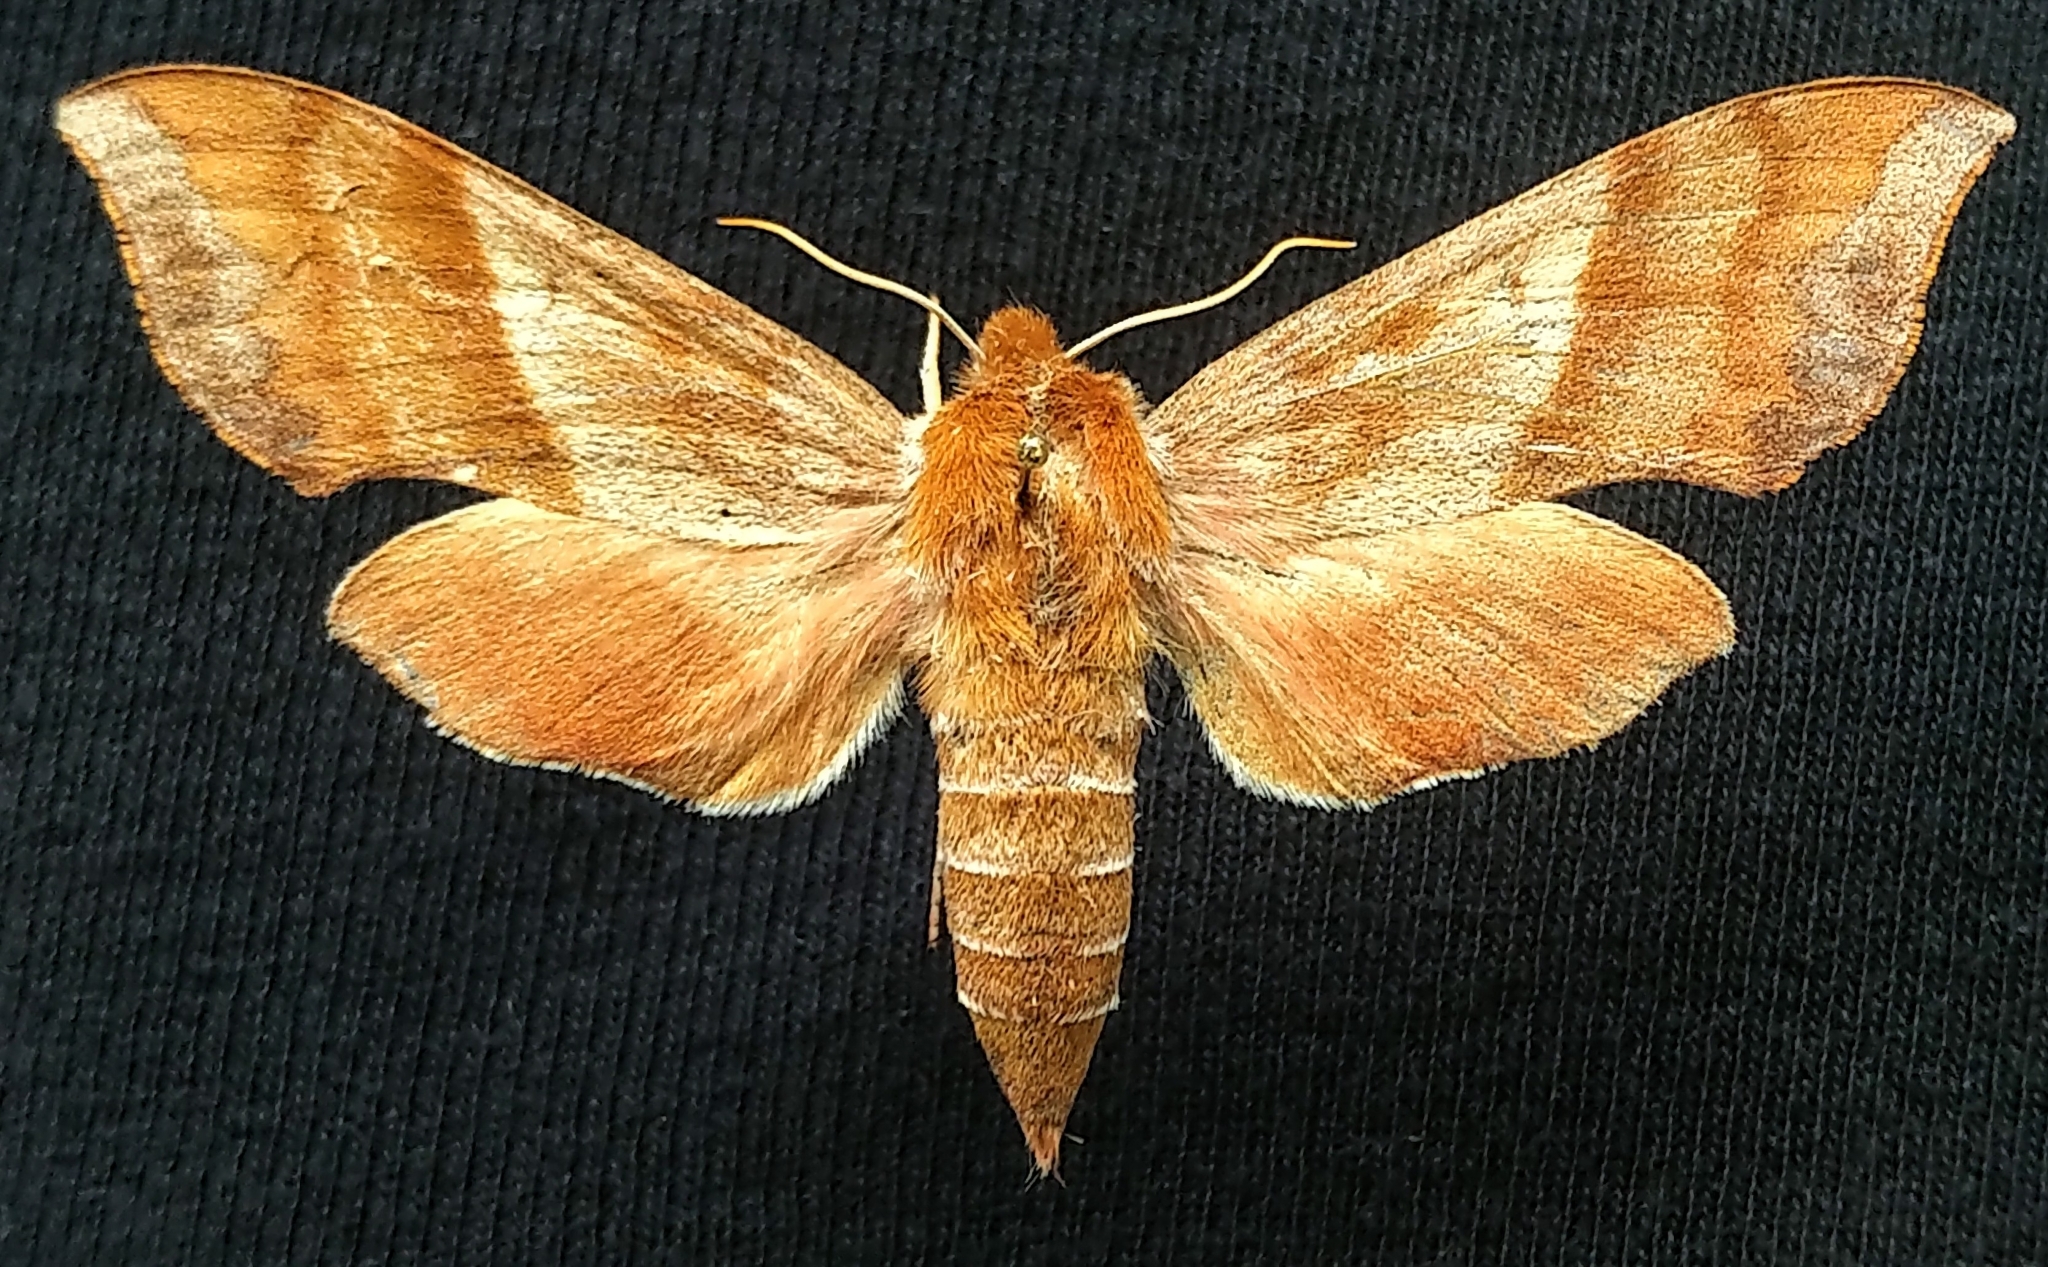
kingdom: Animalia
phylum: Arthropoda
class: Insecta
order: Lepidoptera
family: Sphingidae
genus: Darapsa
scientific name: Darapsa choerilus
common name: Azalea sphinx
